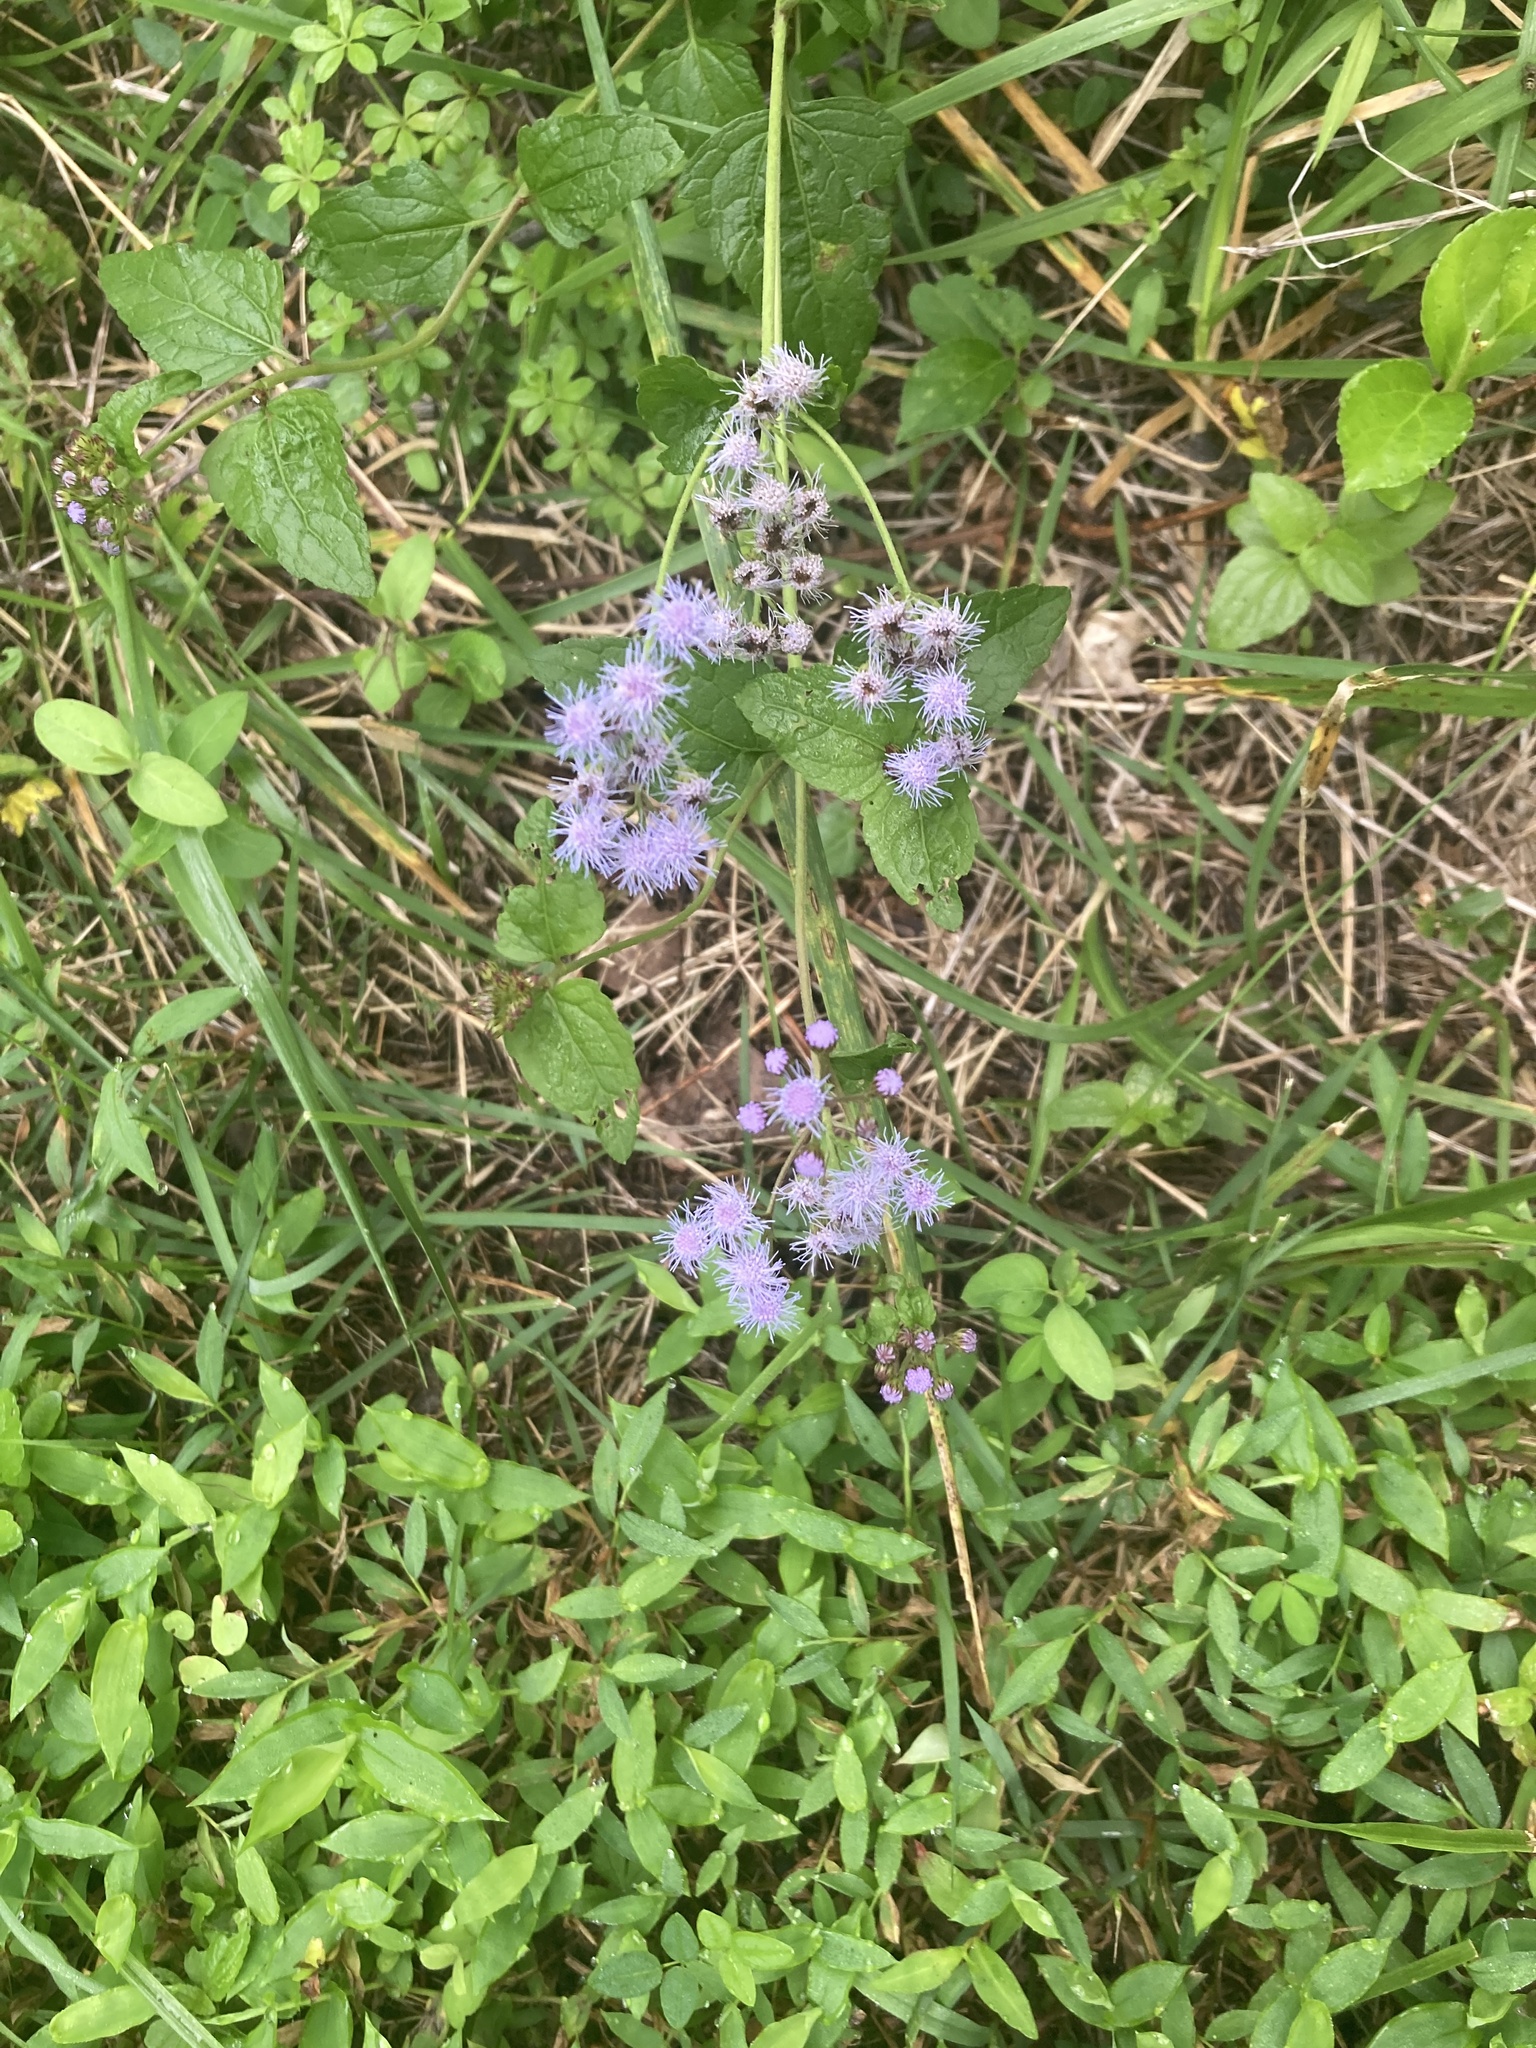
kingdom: Plantae
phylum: Tracheophyta
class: Magnoliopsida
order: Asterales
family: Asteraceae
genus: Conoclinium
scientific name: Conoclinium coelestinum
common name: Blue mistflower
